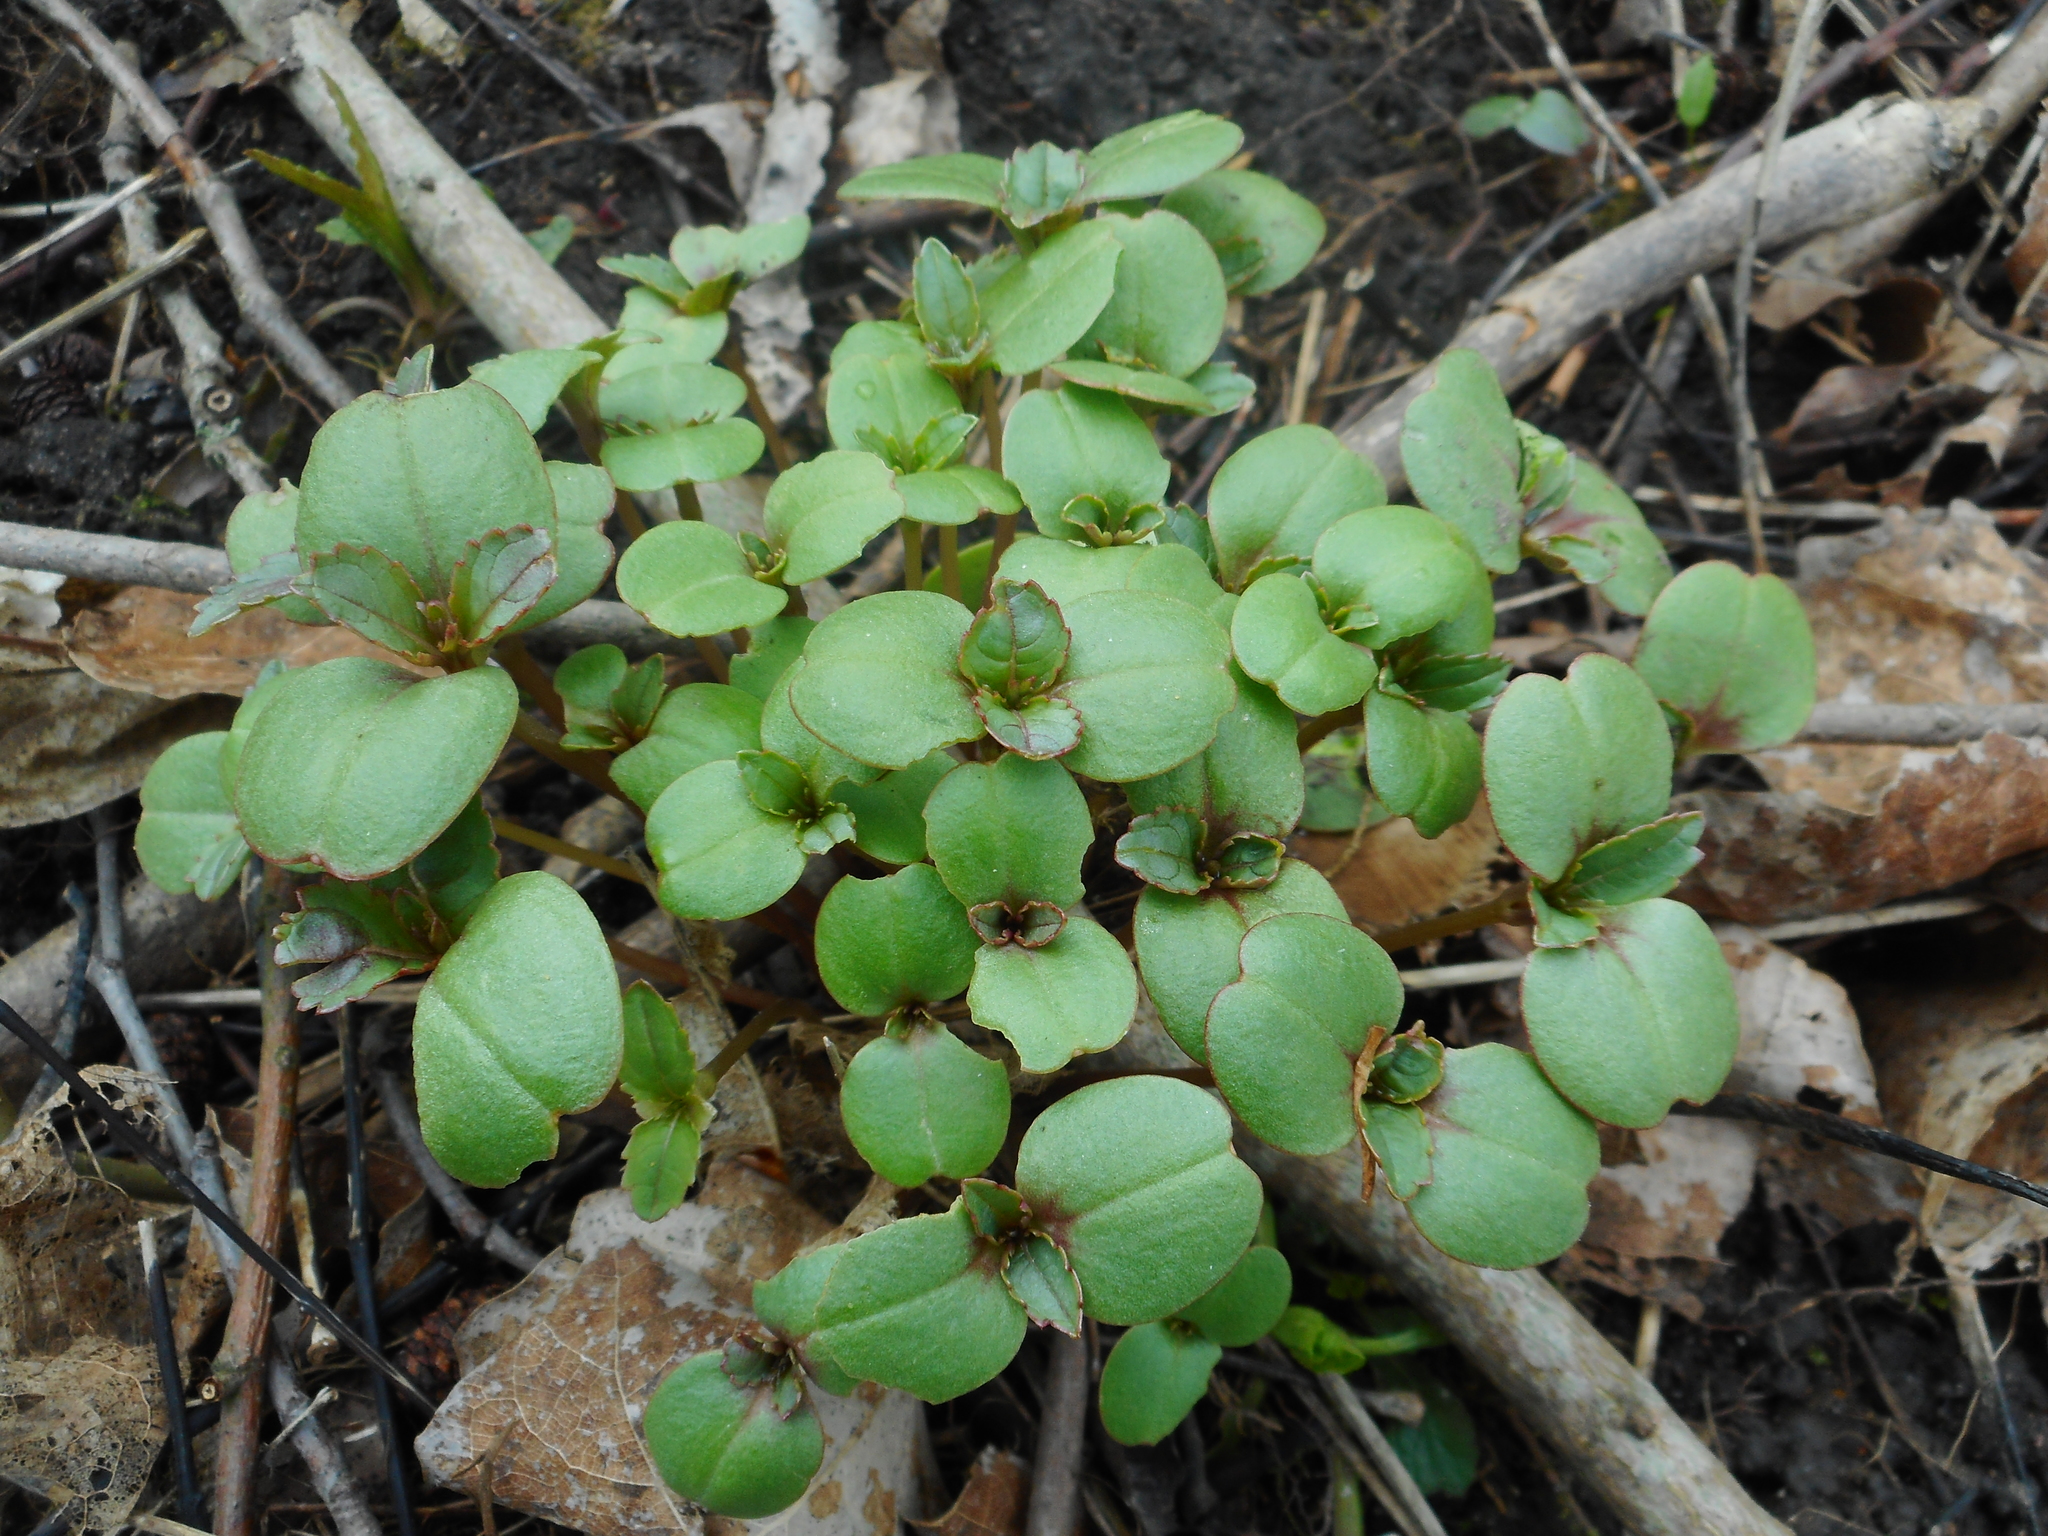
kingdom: Plantae
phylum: Tracheophyta
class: Magnoliopsida
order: Ericales
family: Balsaminaceae
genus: Impatiens
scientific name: Impatiens glandulifera
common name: Himalayan balsam
